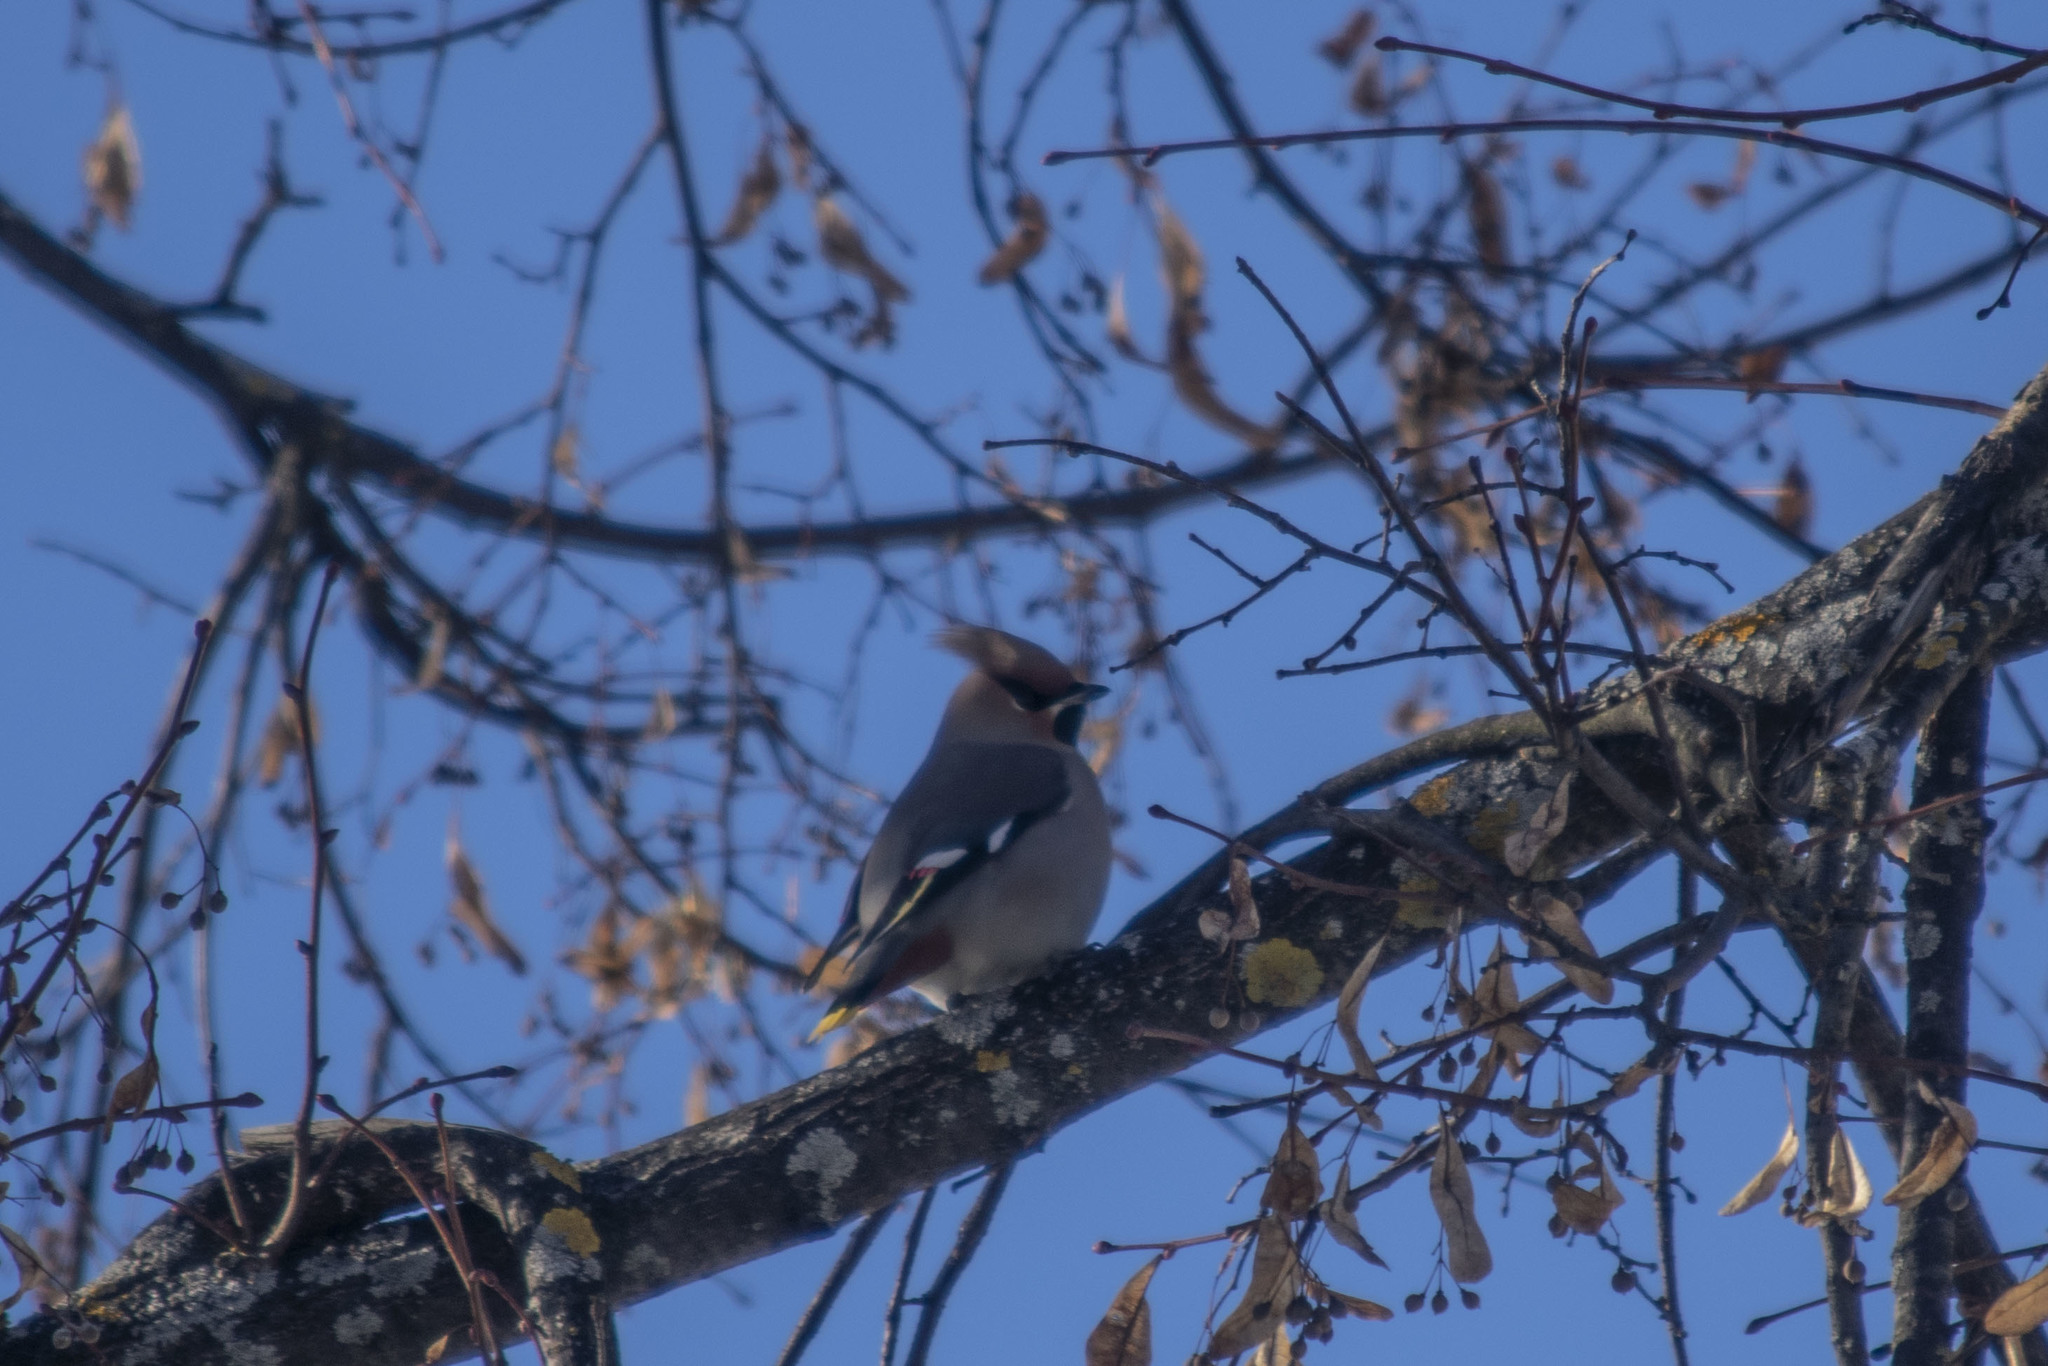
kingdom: Animalia
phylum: Chordata
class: Aves
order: Passeriformes
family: Bombycillidae
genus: Bombycilla
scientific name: Bombycilla garrulus
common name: Bohemian waxwing
